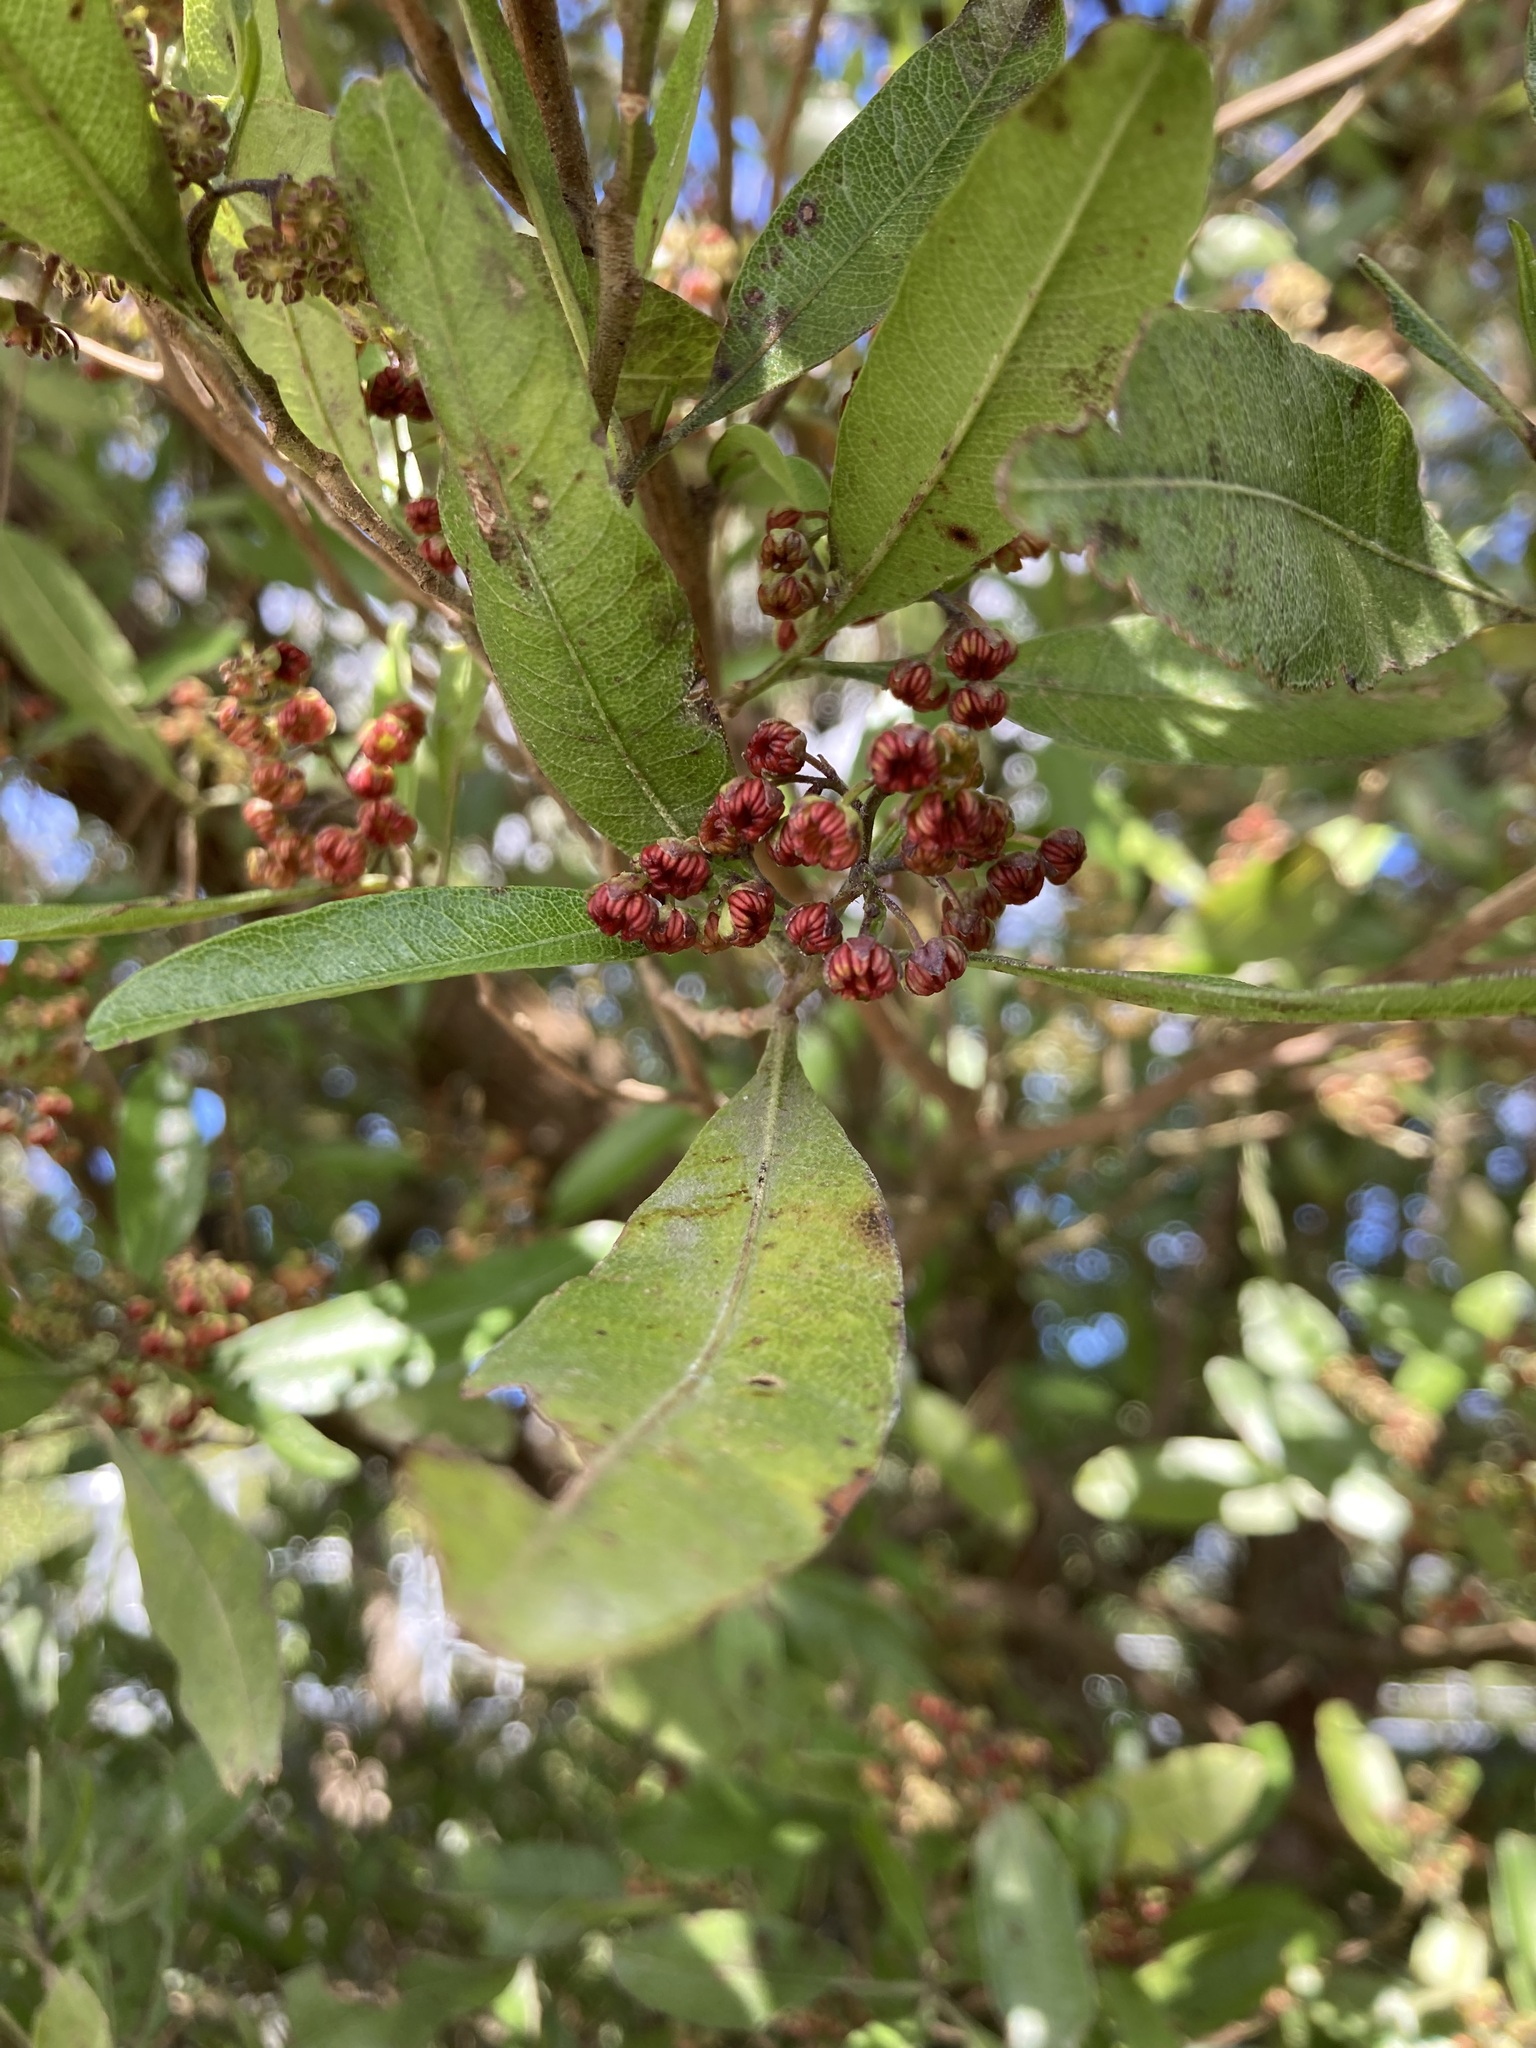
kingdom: Plantae
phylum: Tracheophyta
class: Magnoliopsida
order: Sapindales
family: Sapindaceae
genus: Dodonaea
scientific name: Dodonaea viscosa
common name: Hopbush
